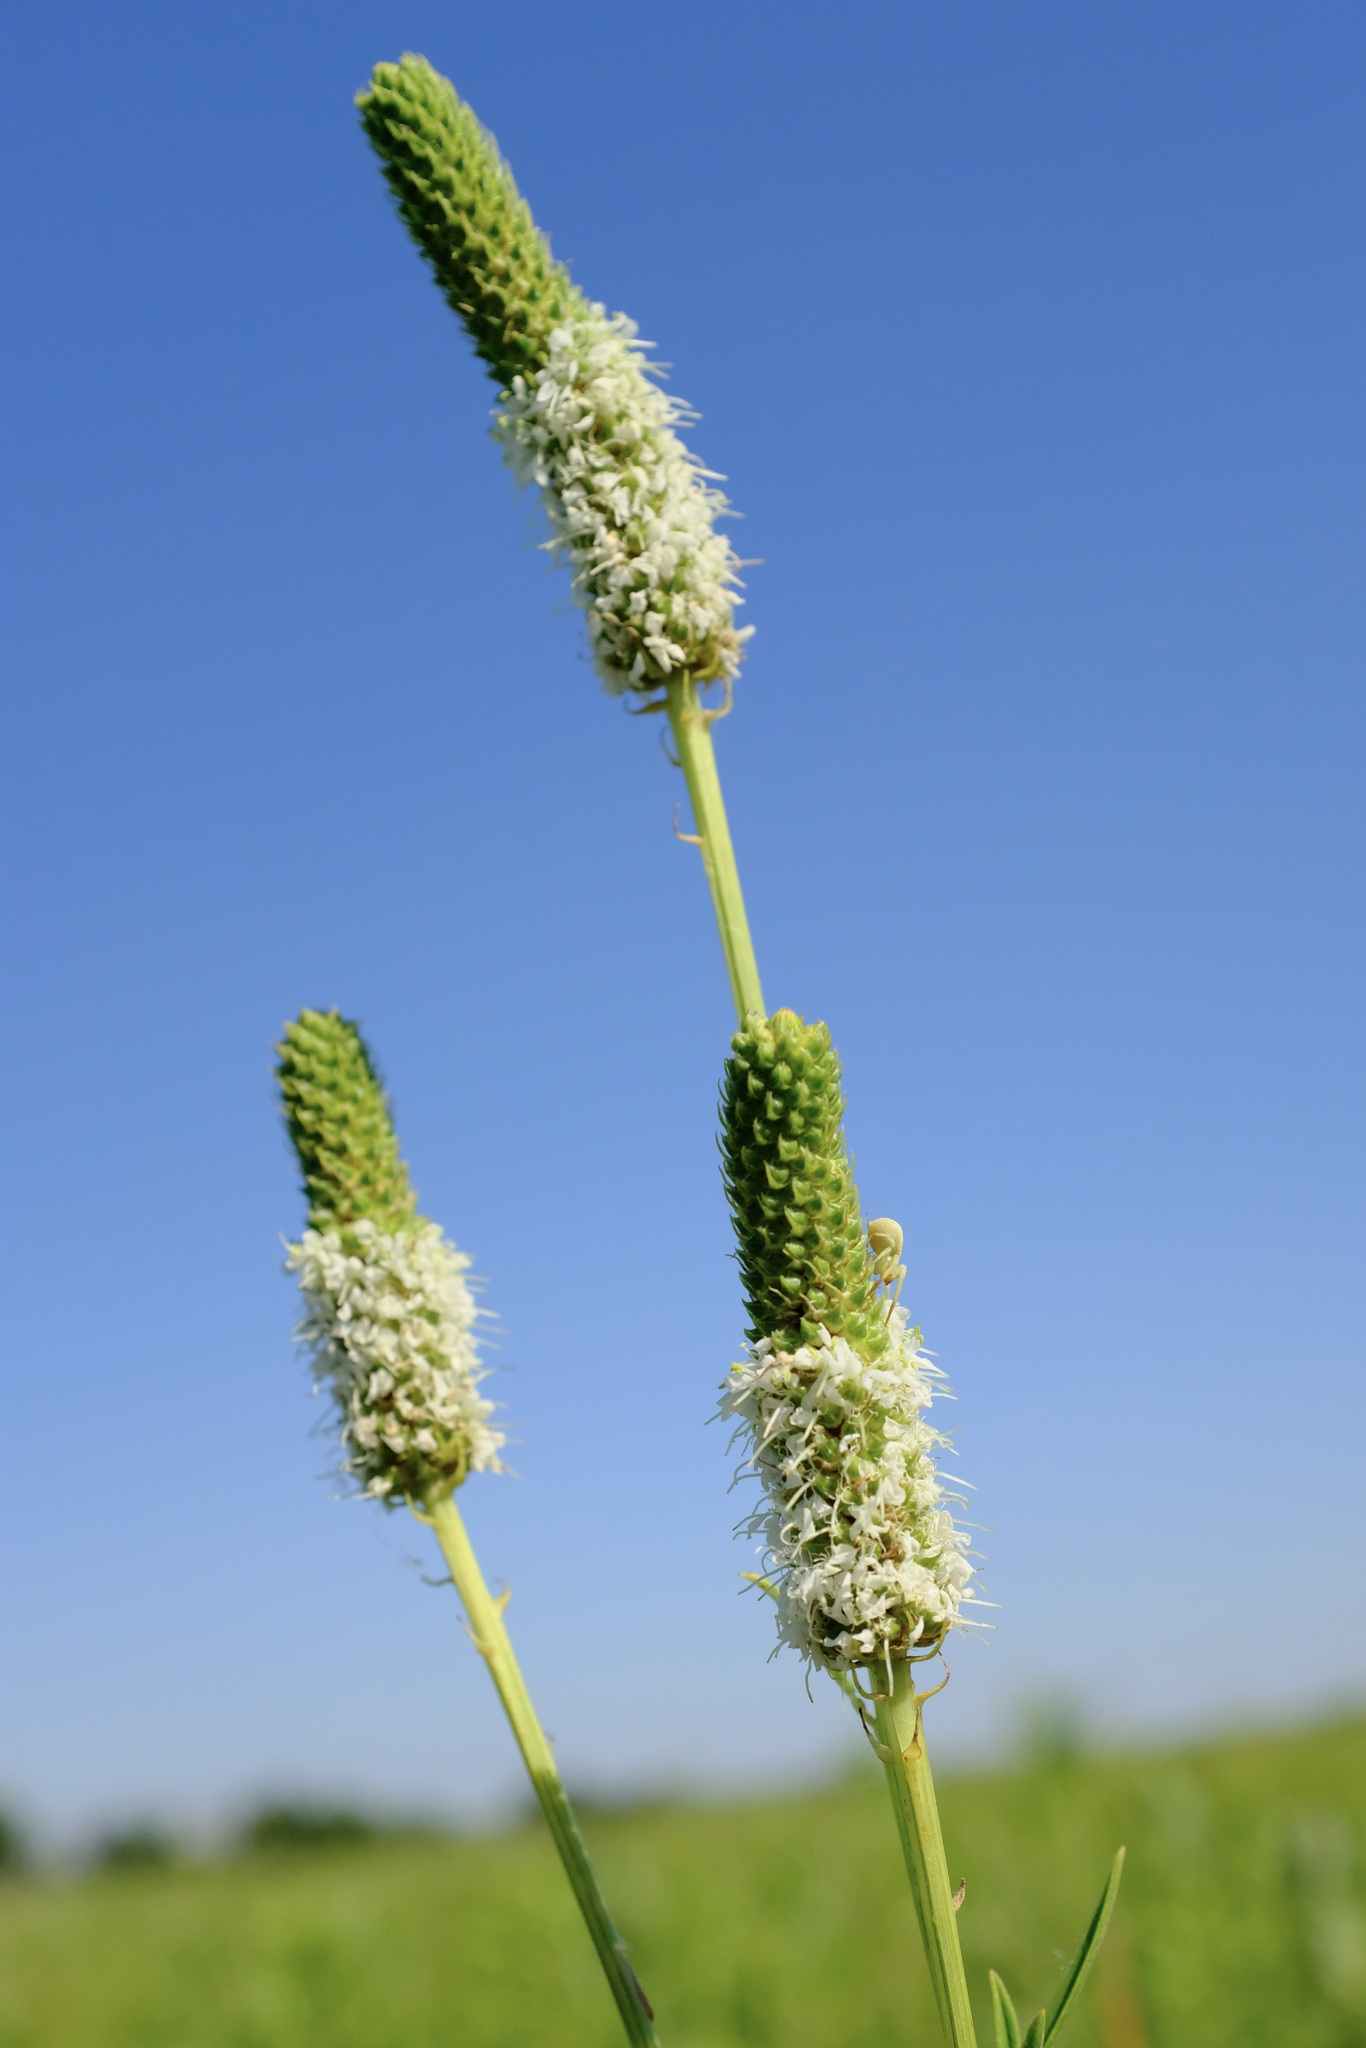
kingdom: Plantae
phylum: Tracheophyta
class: Magnoliopsida
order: Fabales
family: Fabaceae
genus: Dalea
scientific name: Dalea candida
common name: White prairie-clover
